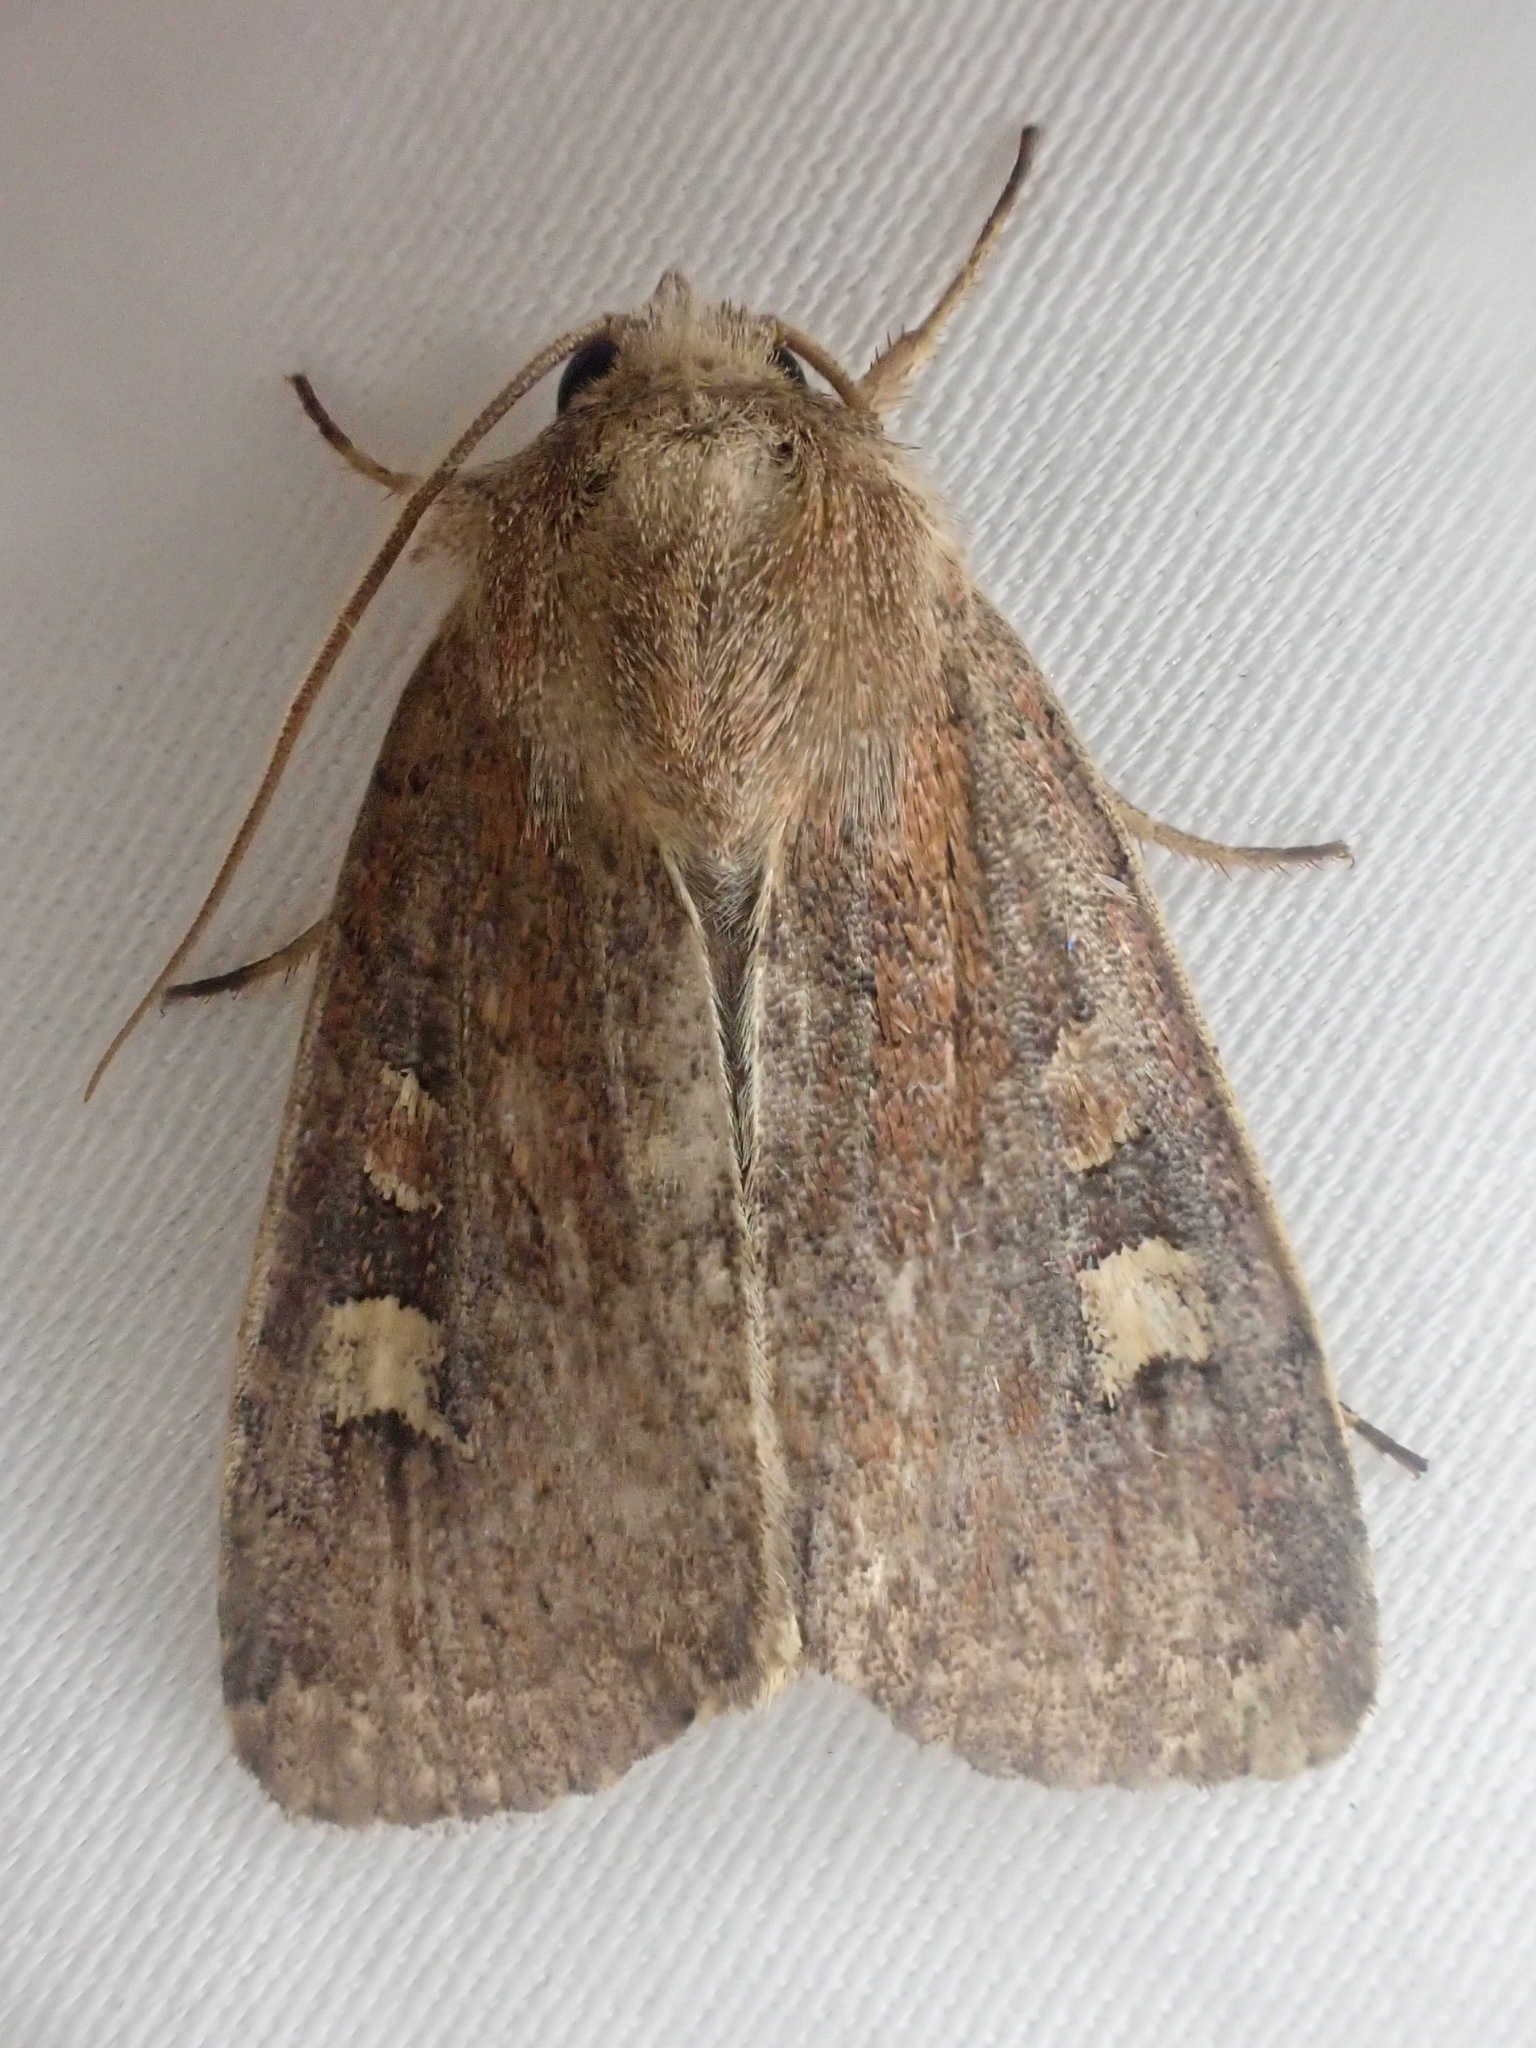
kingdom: Animalia
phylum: Arthropoda
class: Insecta
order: Lepidoptera
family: Noctuidae
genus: Xestia
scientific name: Xestia xanthographa
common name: Square-spot rustic
